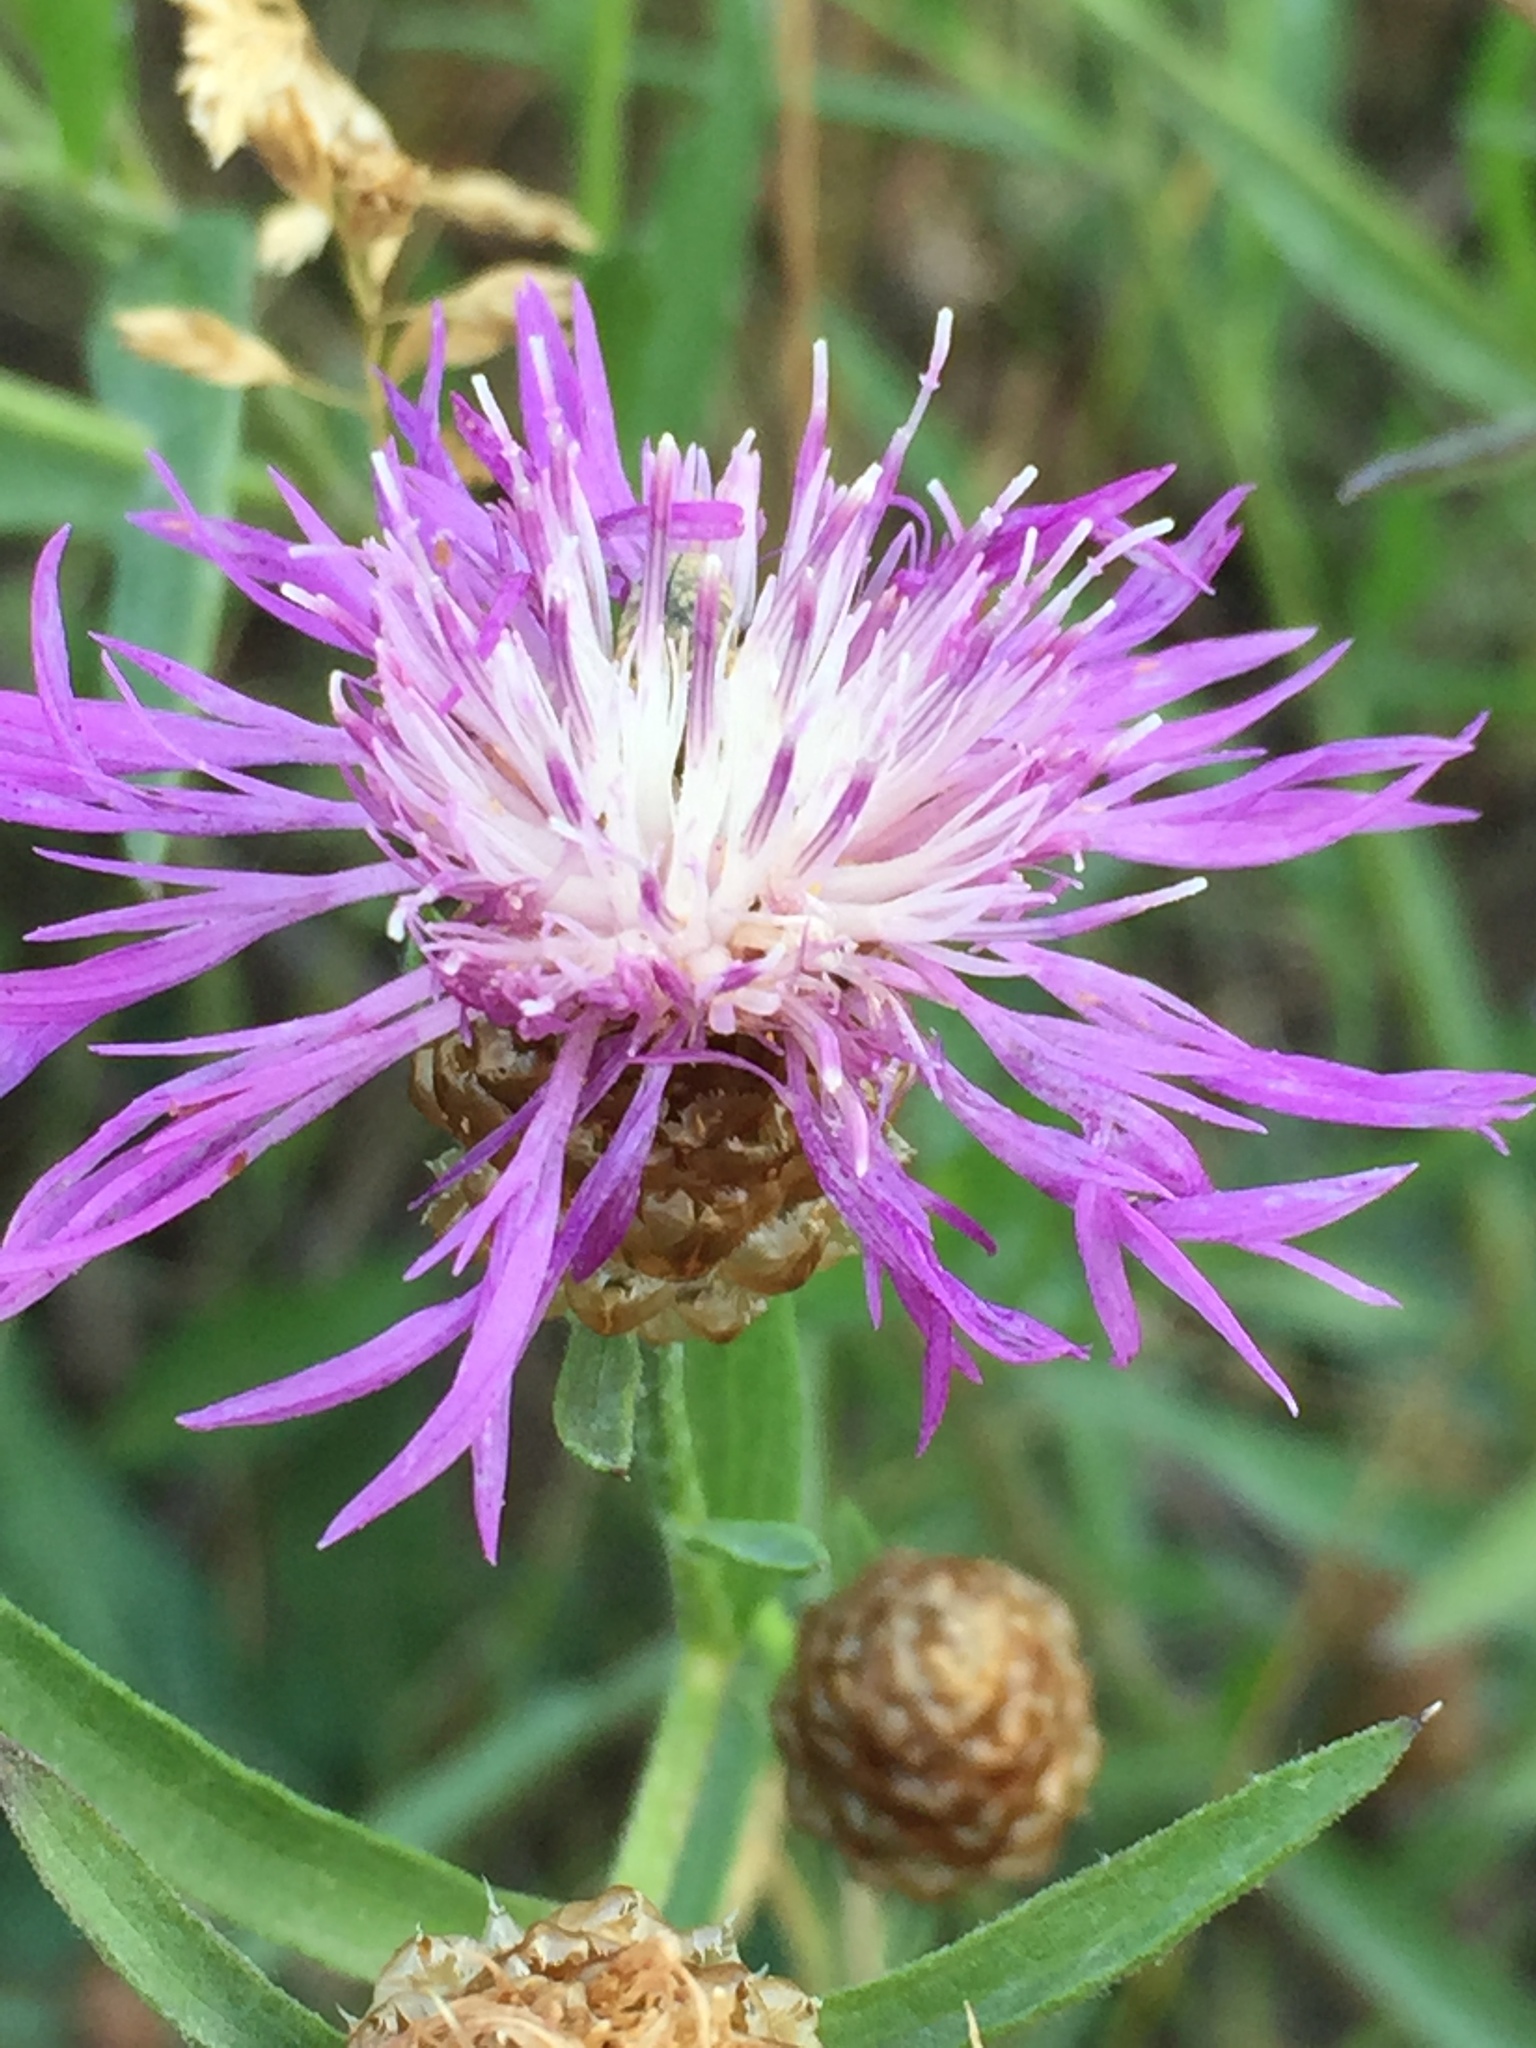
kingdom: Plantae
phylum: Tracheophyta
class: Magnoliopsida
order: Asterales
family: Asteraceae
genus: Centaurea
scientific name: Centaurea jacea
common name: Brown knapweed
